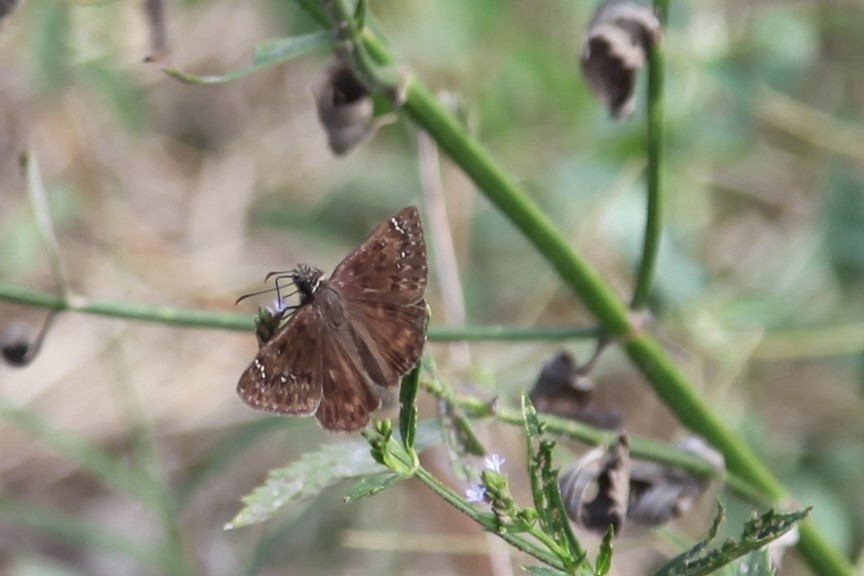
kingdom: Animalia
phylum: Arthropoda
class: Insecta
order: Lepidoptera
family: Hesperiidae
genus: Erynnis
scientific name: Erynnis horatius
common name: Horace's duskywing
